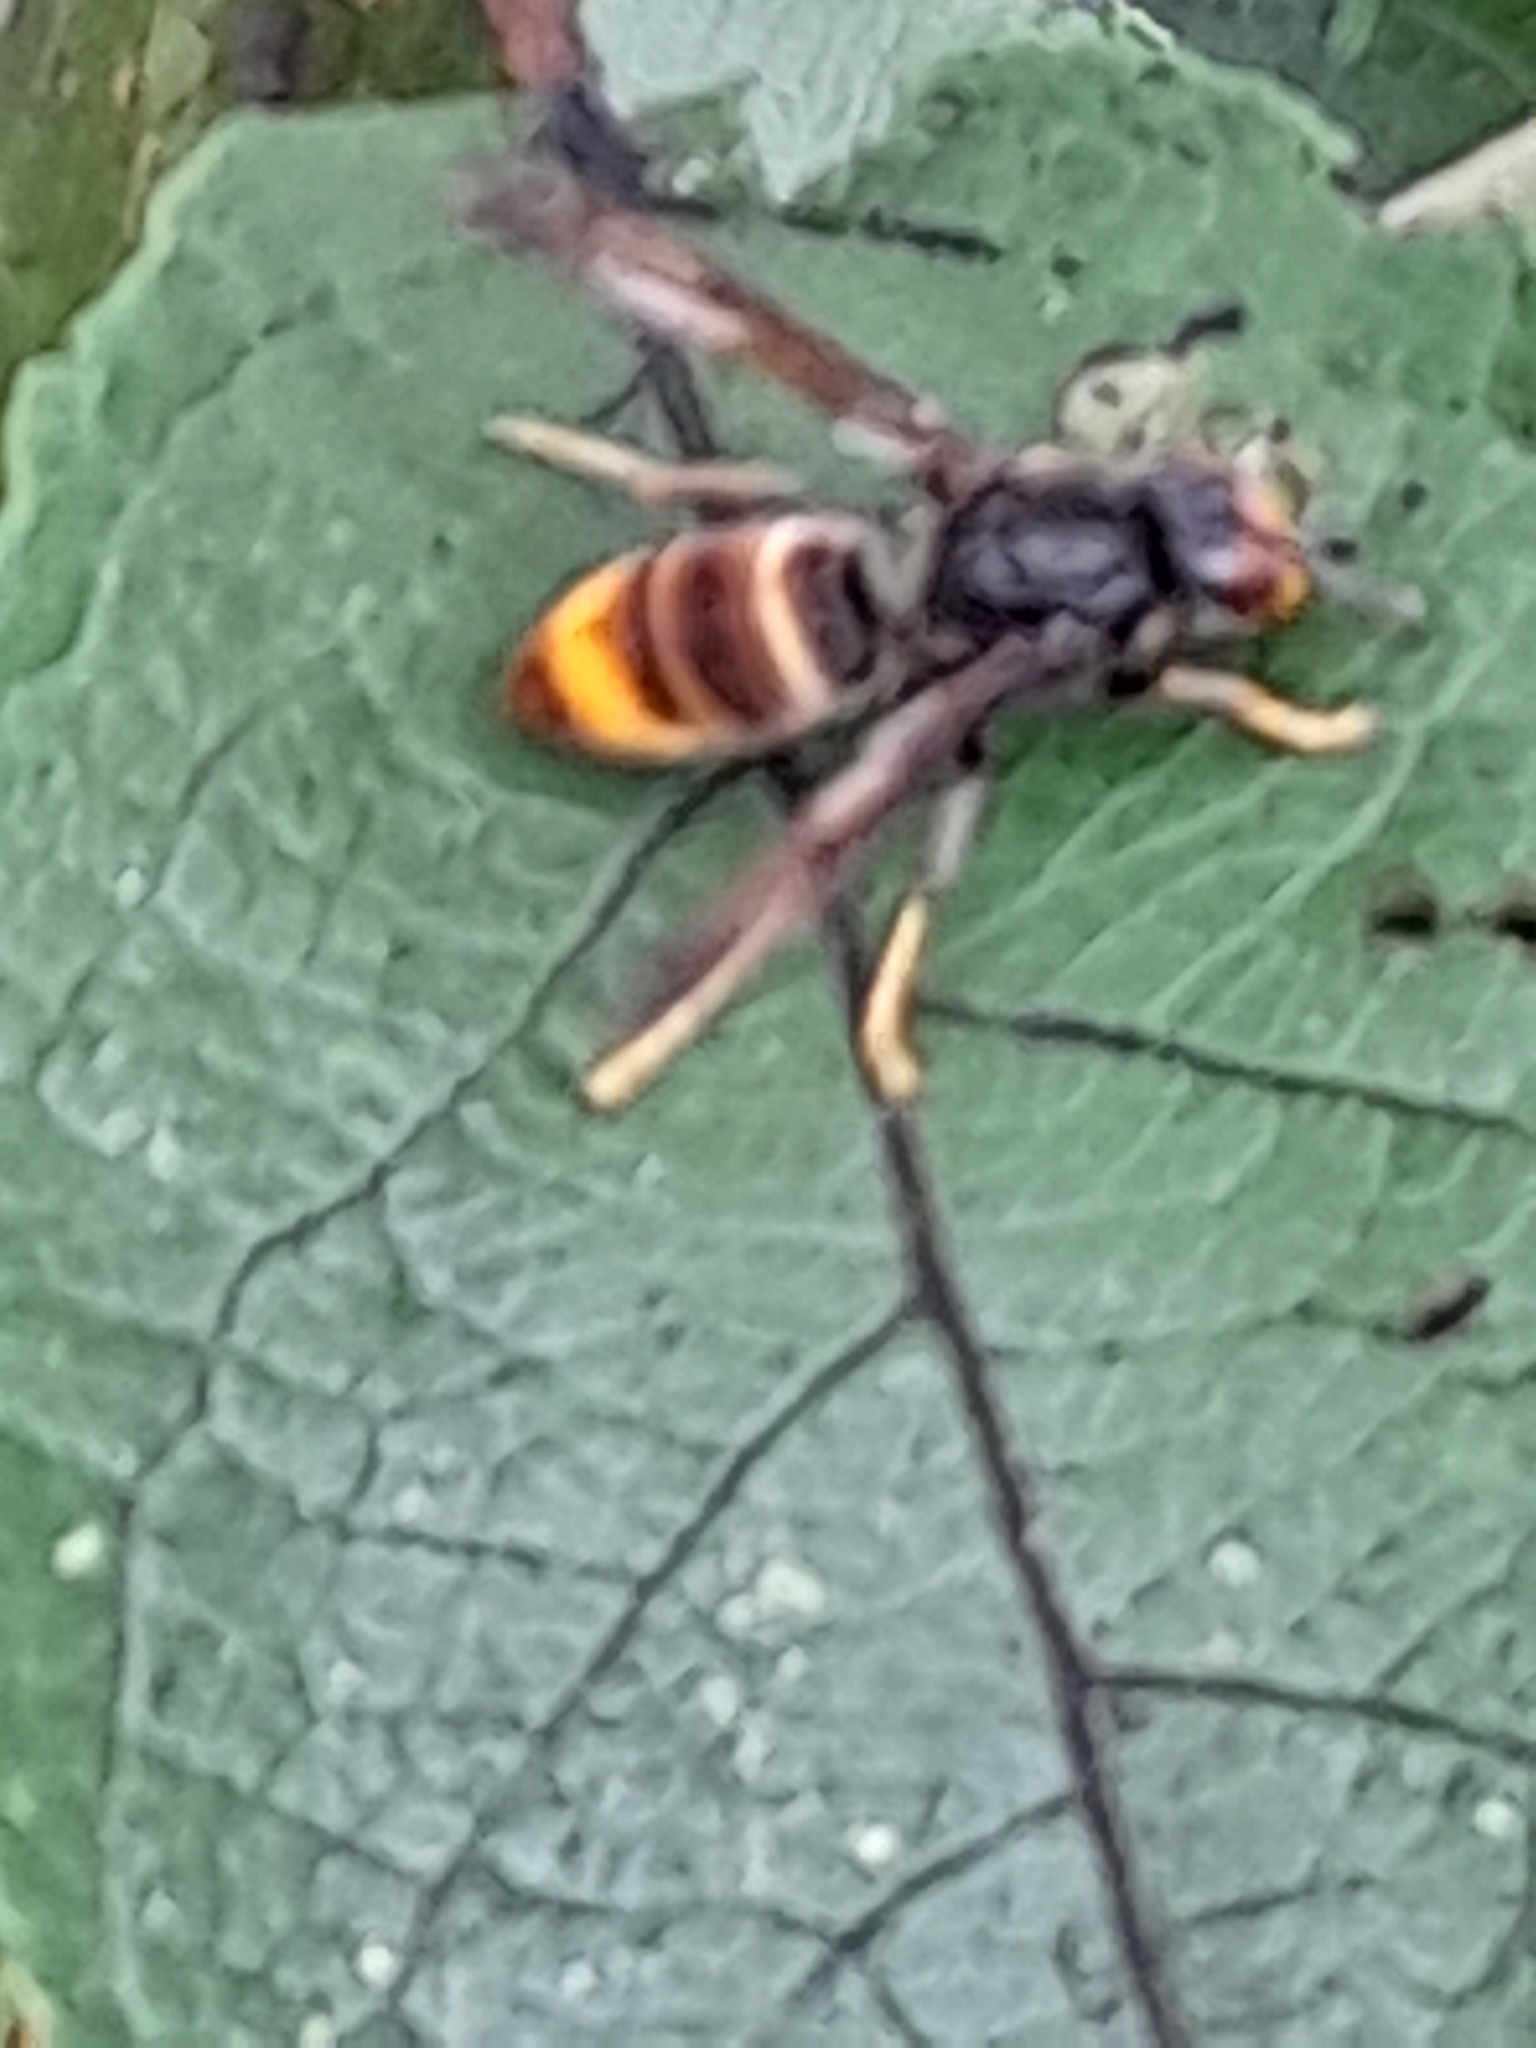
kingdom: Animalia
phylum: Arthropoda
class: Insecta
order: Hymenoptera
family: Vespidae
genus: Vespa
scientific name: Vespa velutina
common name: Asian hornet
